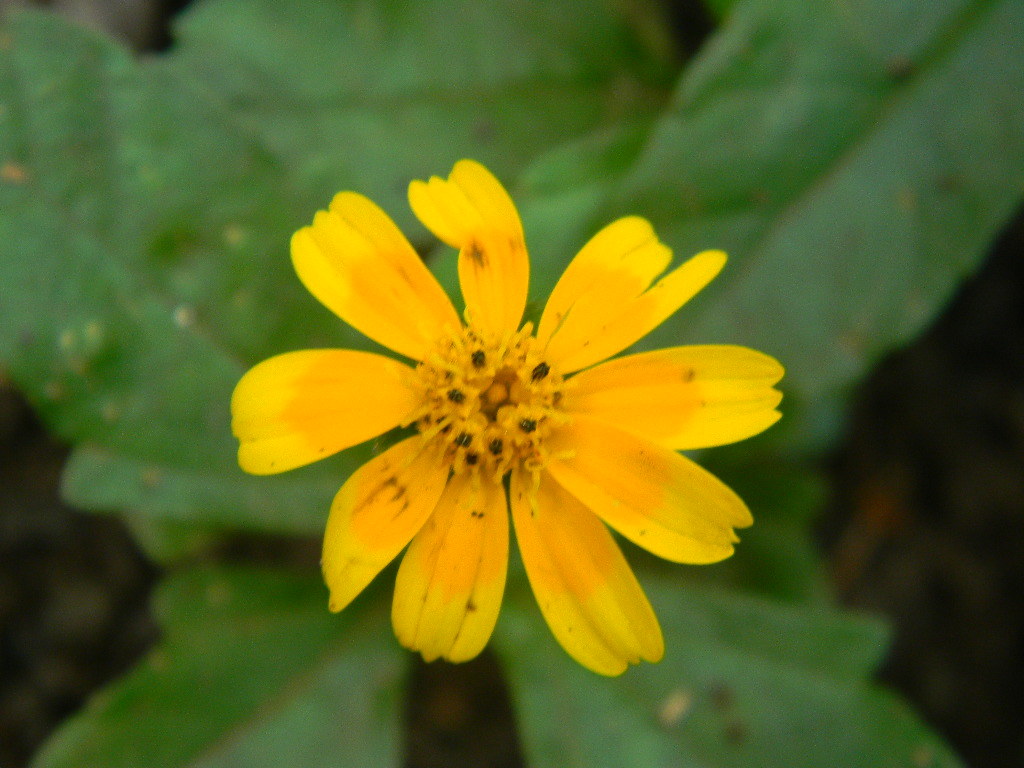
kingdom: Plantae
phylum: Tracheophyta
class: Magnoliopsida
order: Asterales
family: Asteraceae
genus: Sphagneticola
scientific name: Sphagneticola trilobata
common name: Bay biscayne creeping-oxeye
